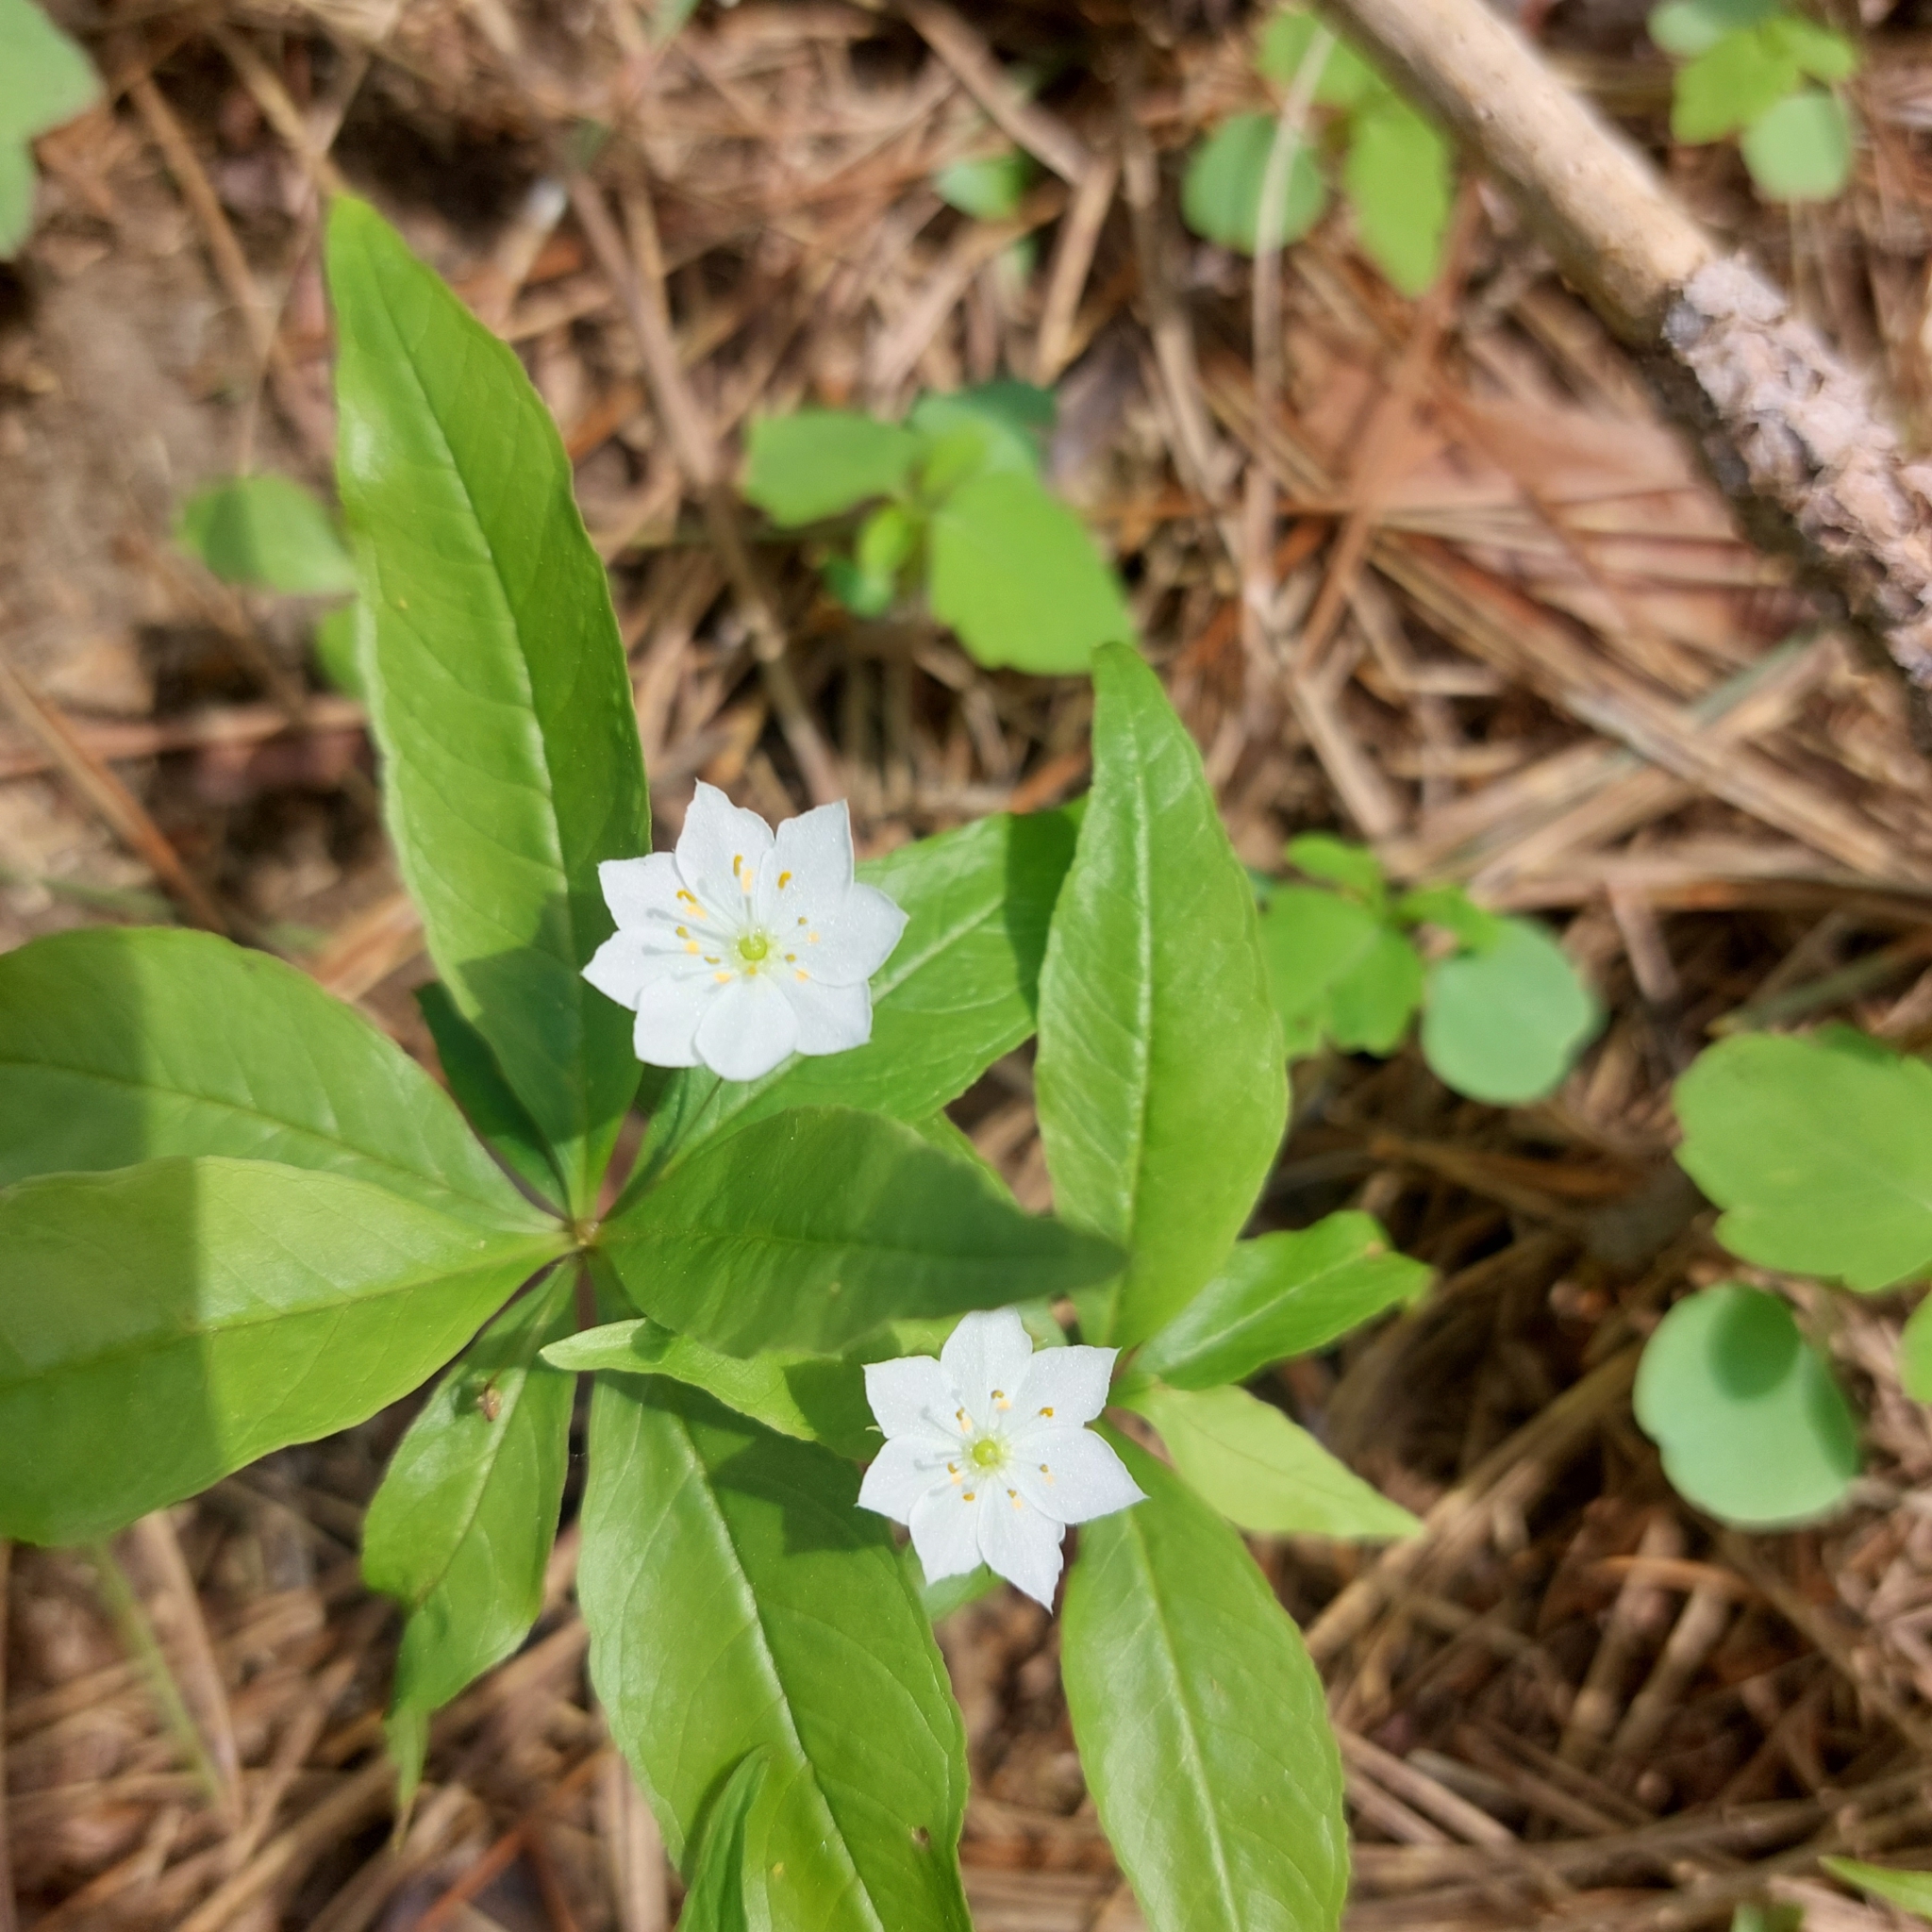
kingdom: Plantae
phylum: Tracheophyta
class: Magnoliopsida
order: Ericales
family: Primulaceae
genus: Lysimachia
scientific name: Lysimachia borealis
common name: American starflower
